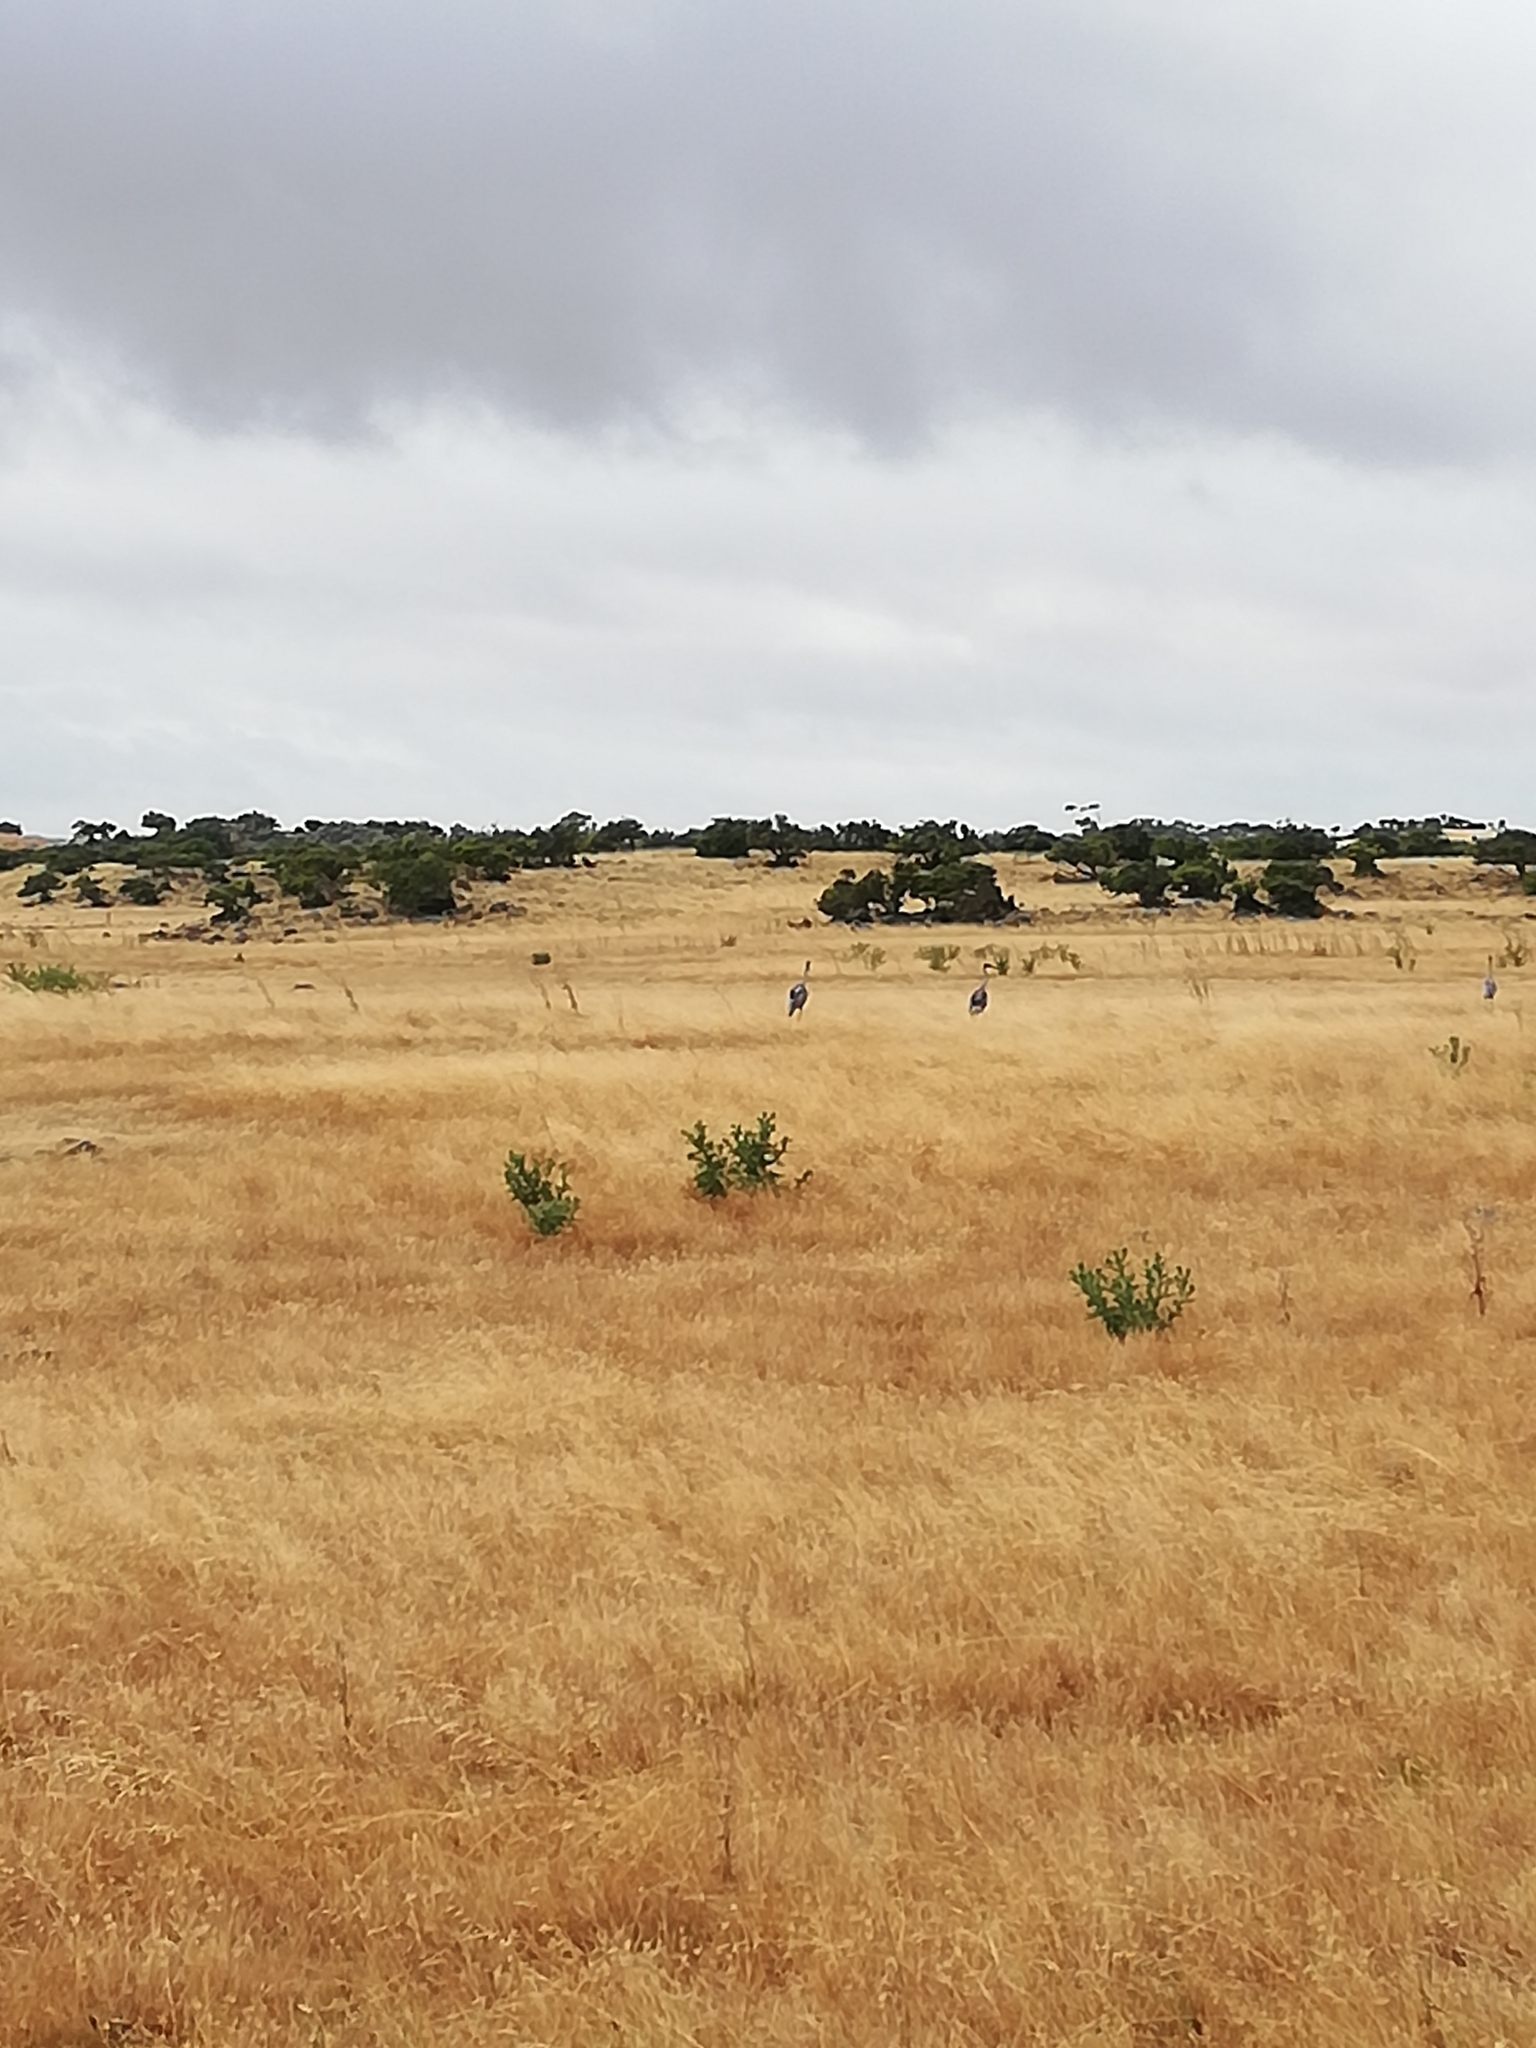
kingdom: Animalia
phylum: Chordata
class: Aves
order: Gruiformes
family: Gruidae
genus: Grus
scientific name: Grus rubicunda
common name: Brolga
